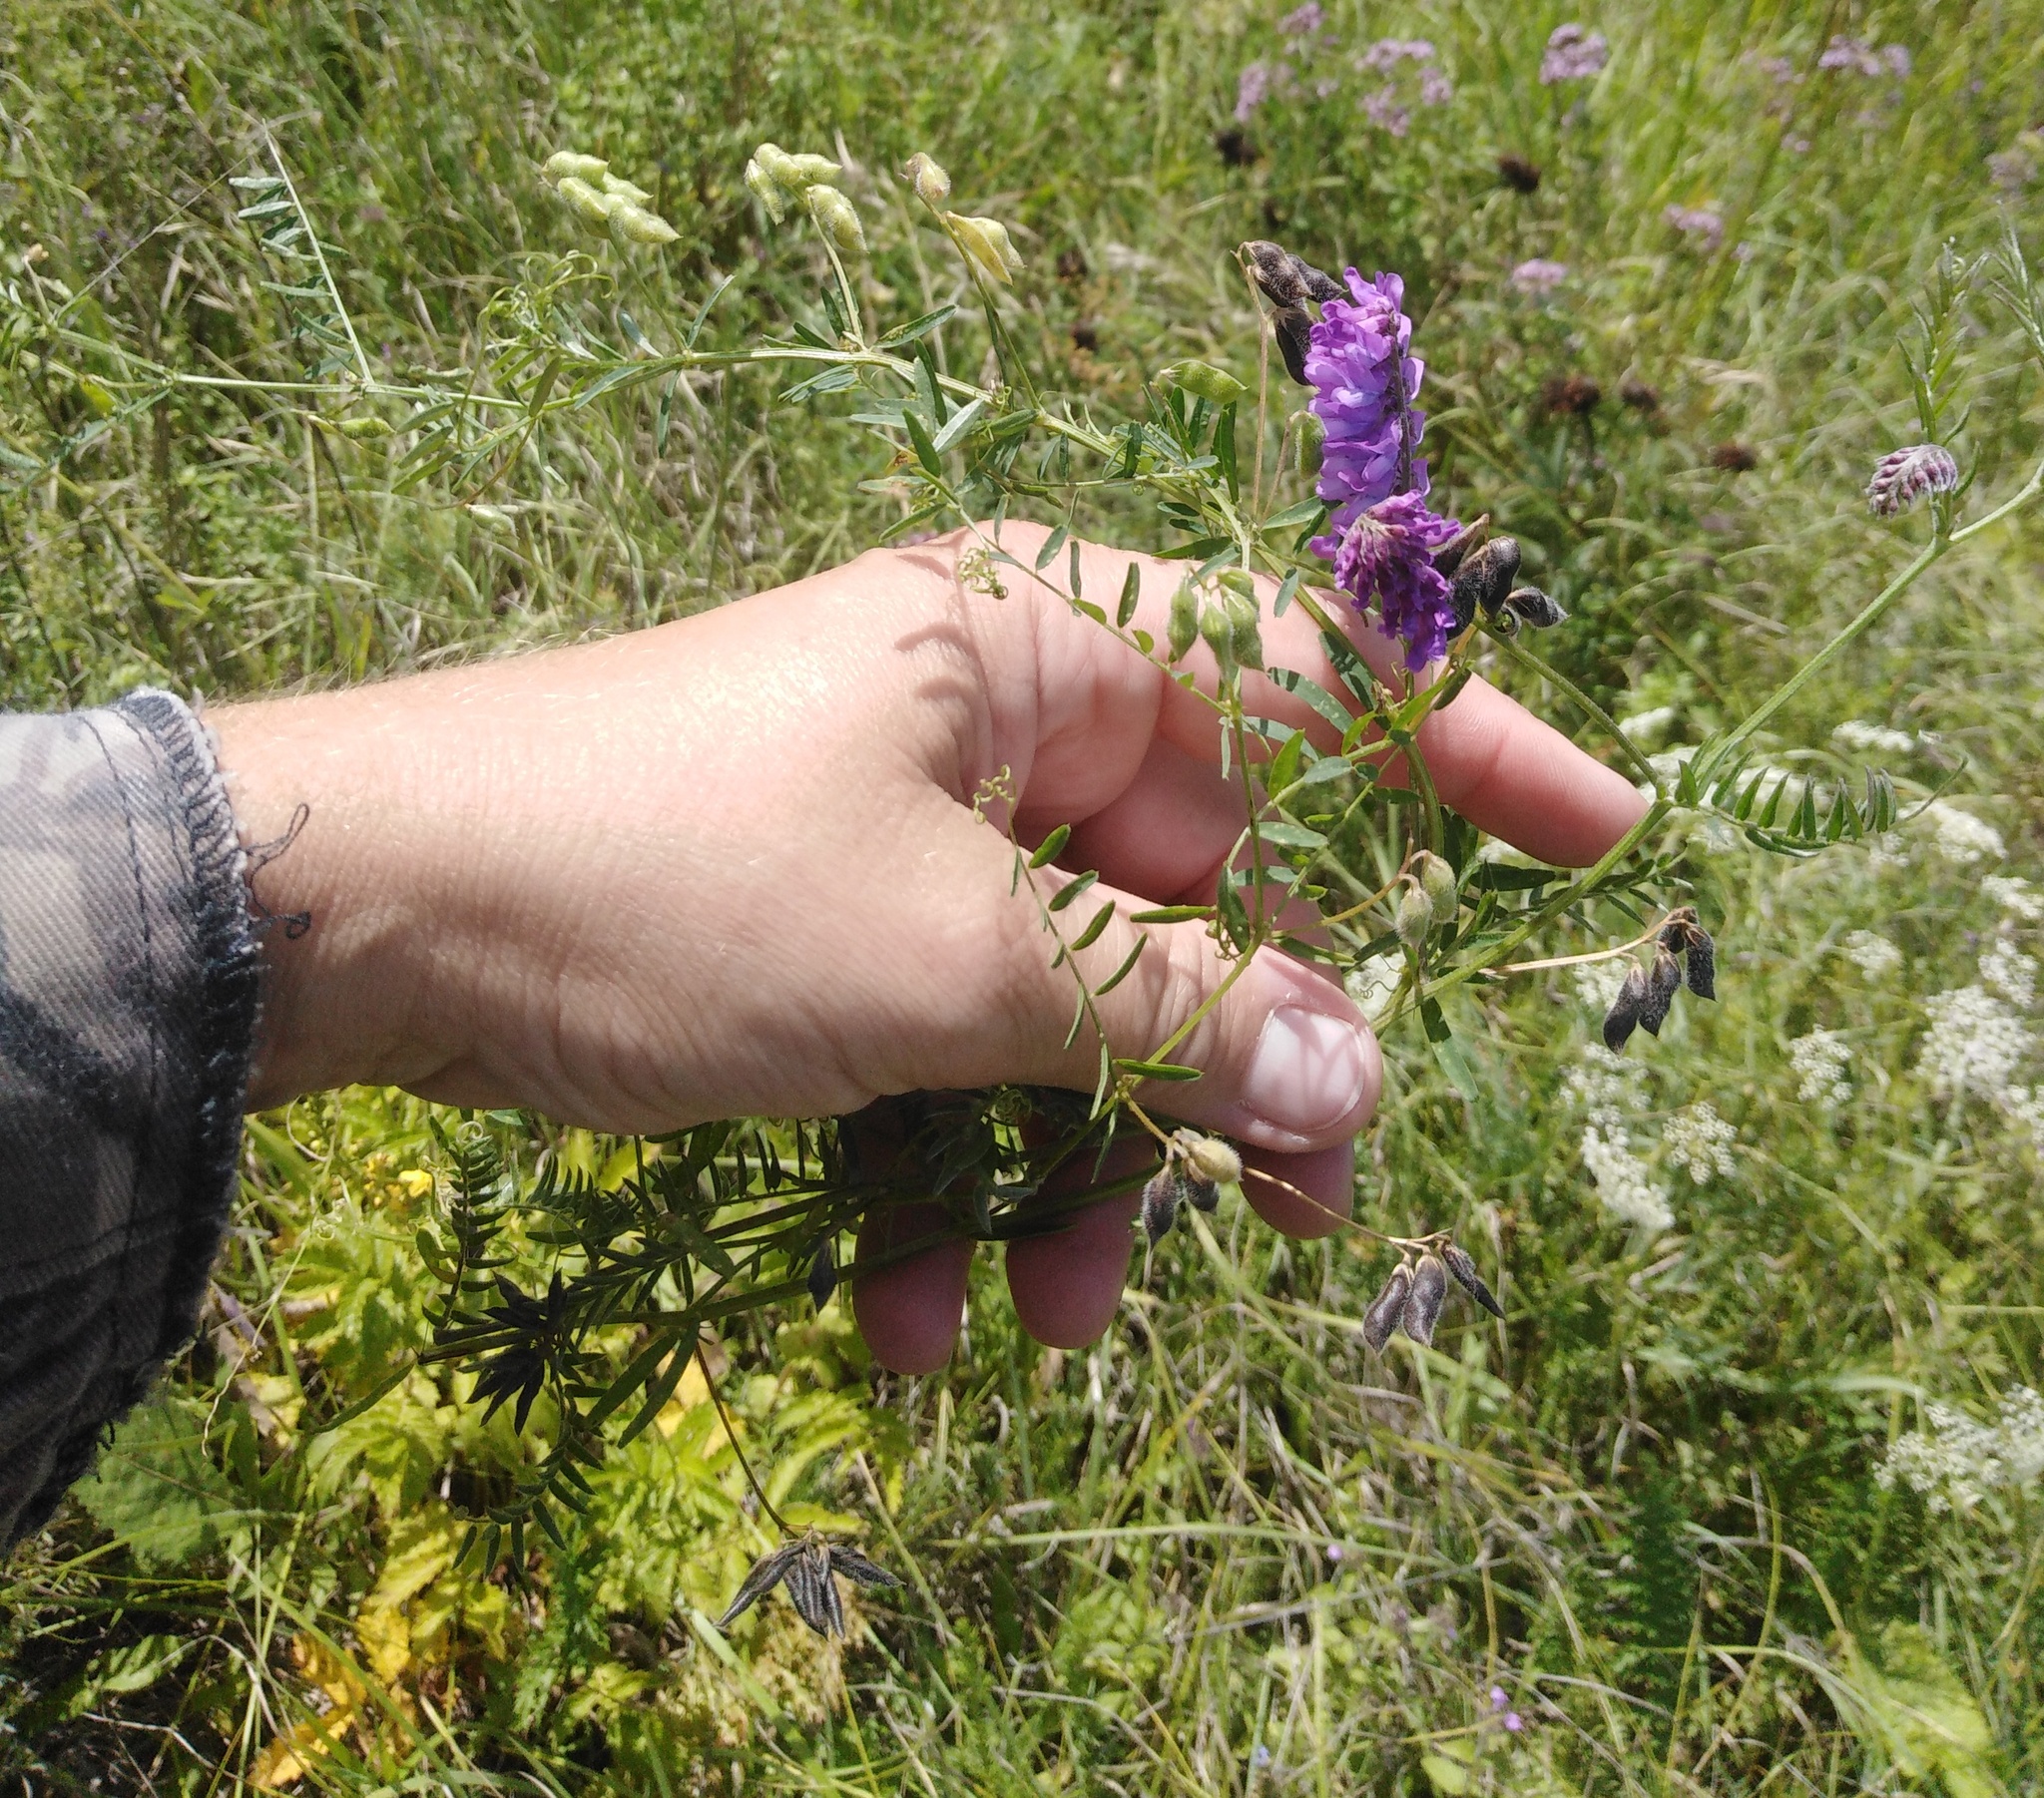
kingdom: Plantae
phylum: Tracheophyta
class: Magnoliopsida
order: Fabales
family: Fabaceae
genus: Vicia
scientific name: Vicia cracca
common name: Bird vetch
